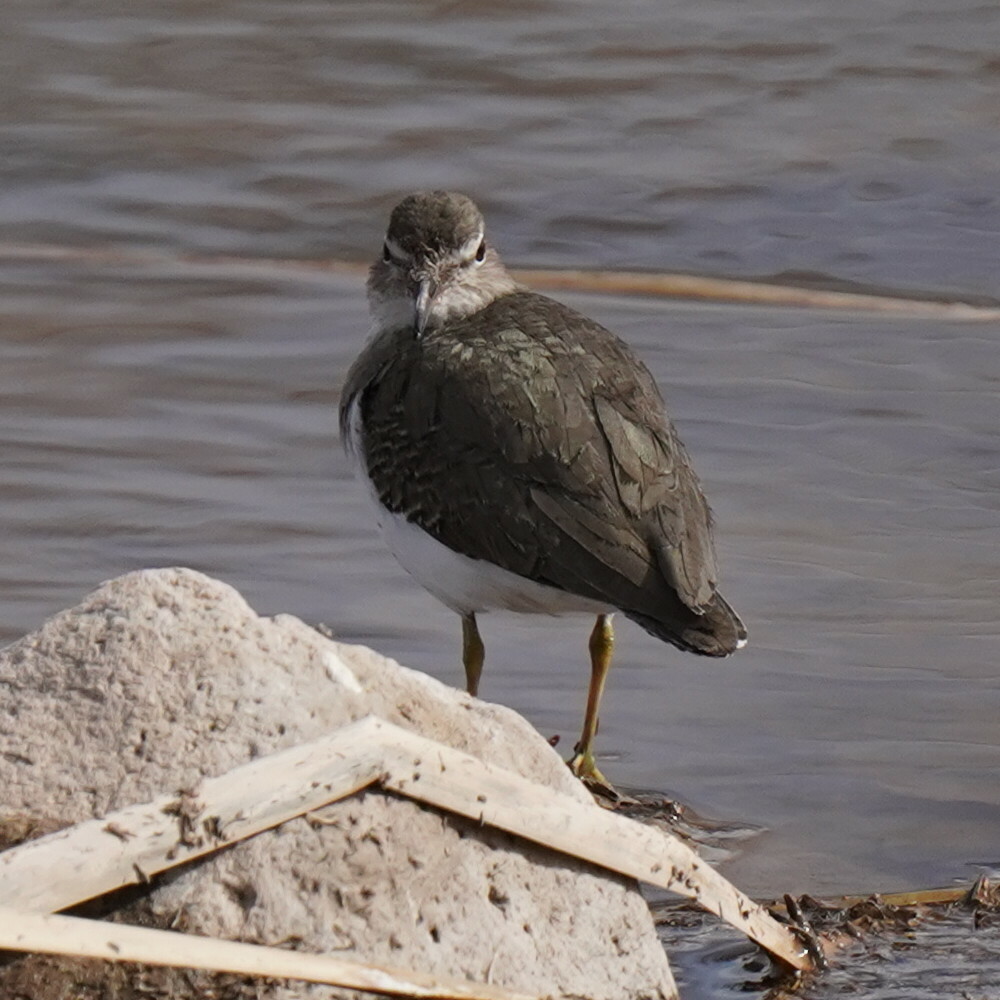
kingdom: Animalia
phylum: Chordata
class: Aves
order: Charadriiformes
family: Scolopacidae
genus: Actitis
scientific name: Actitis macularius
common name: Spotted sandpiper
